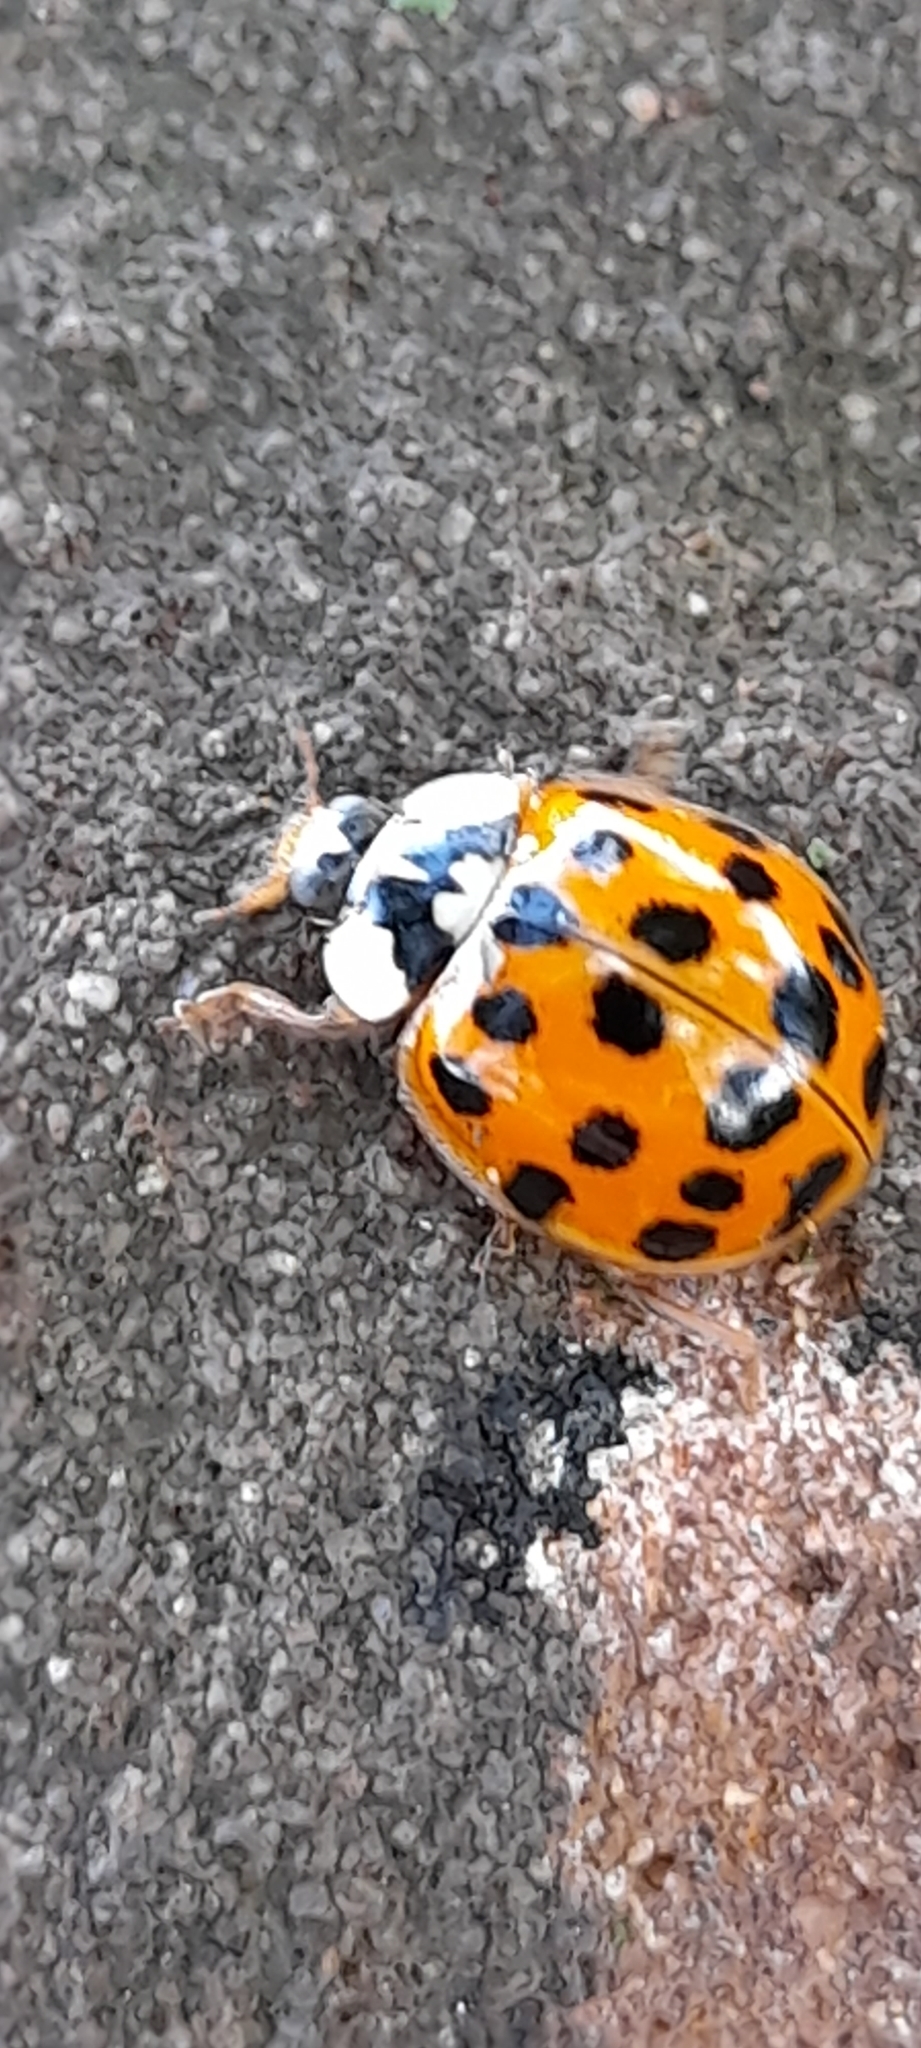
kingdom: Animalia
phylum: Arthropoda
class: Insecta
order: Coleoptera
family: Coccinellidae
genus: Harmonia
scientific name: Harmonia axyridis
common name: Harlequin ladybird
